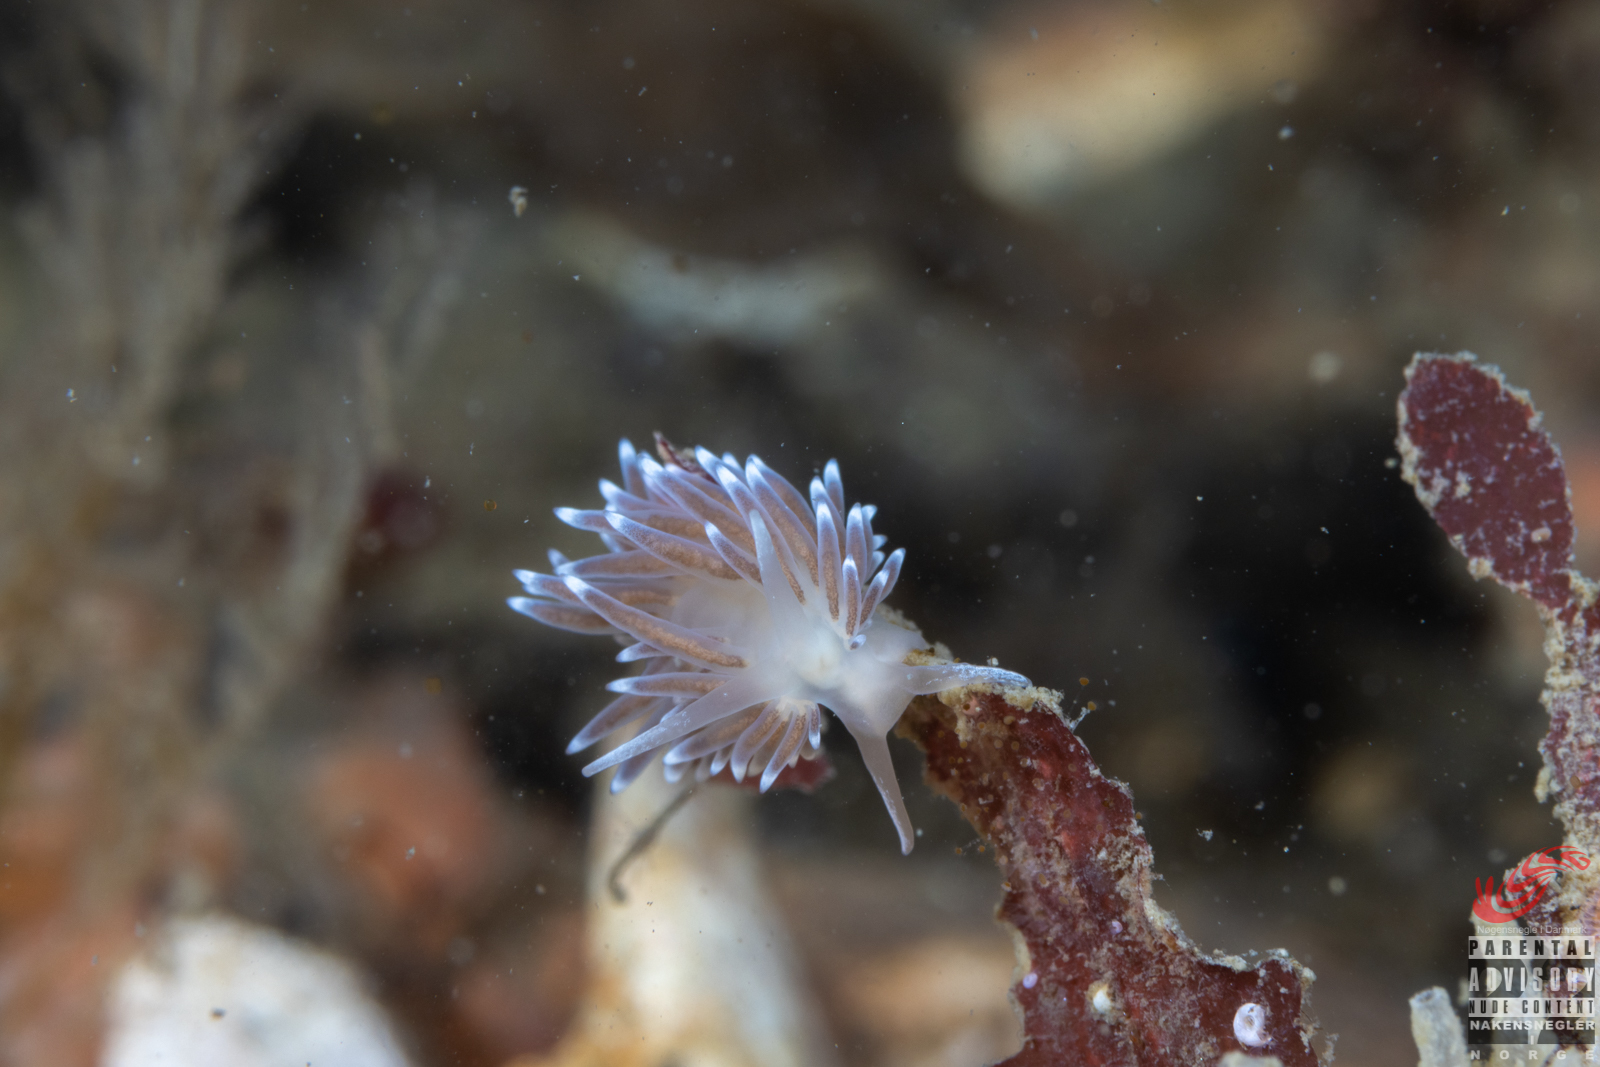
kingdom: Animalia
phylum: Mollusca
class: Gastropoda
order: Nudibranchia
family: Cuthonellidae
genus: Cuthonella
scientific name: Cuthonella concinna
